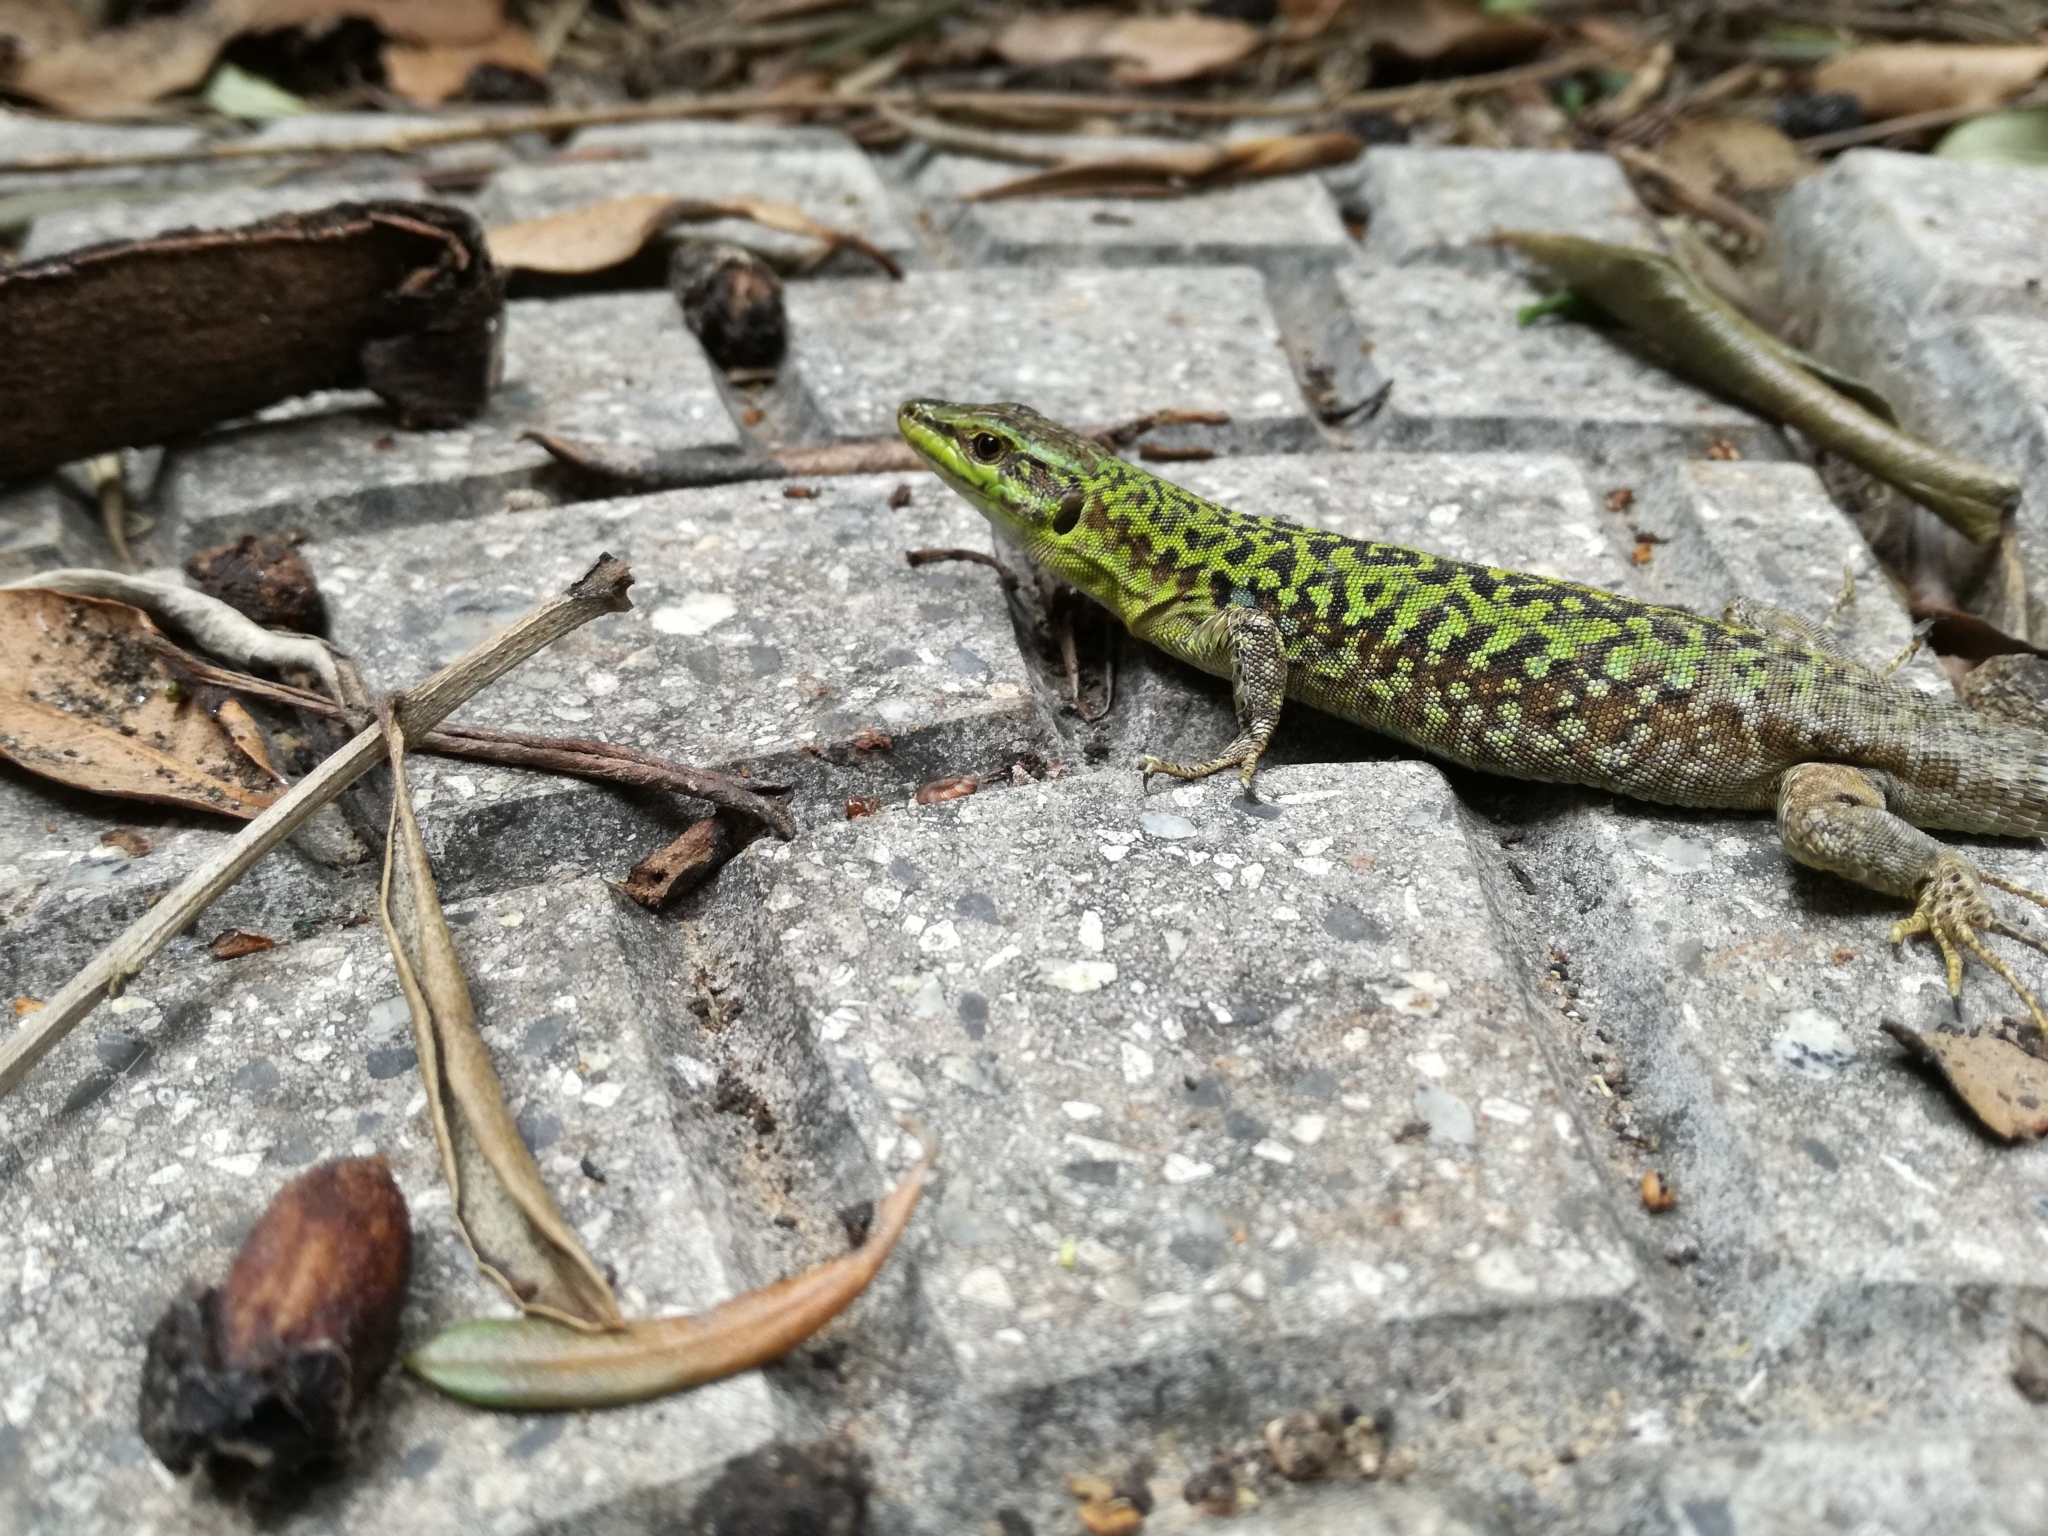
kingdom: Animalia
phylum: Chordata
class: Squamata
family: Lacertidae
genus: Podarcis
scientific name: Podarcis siculus
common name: Italian wall lizard
